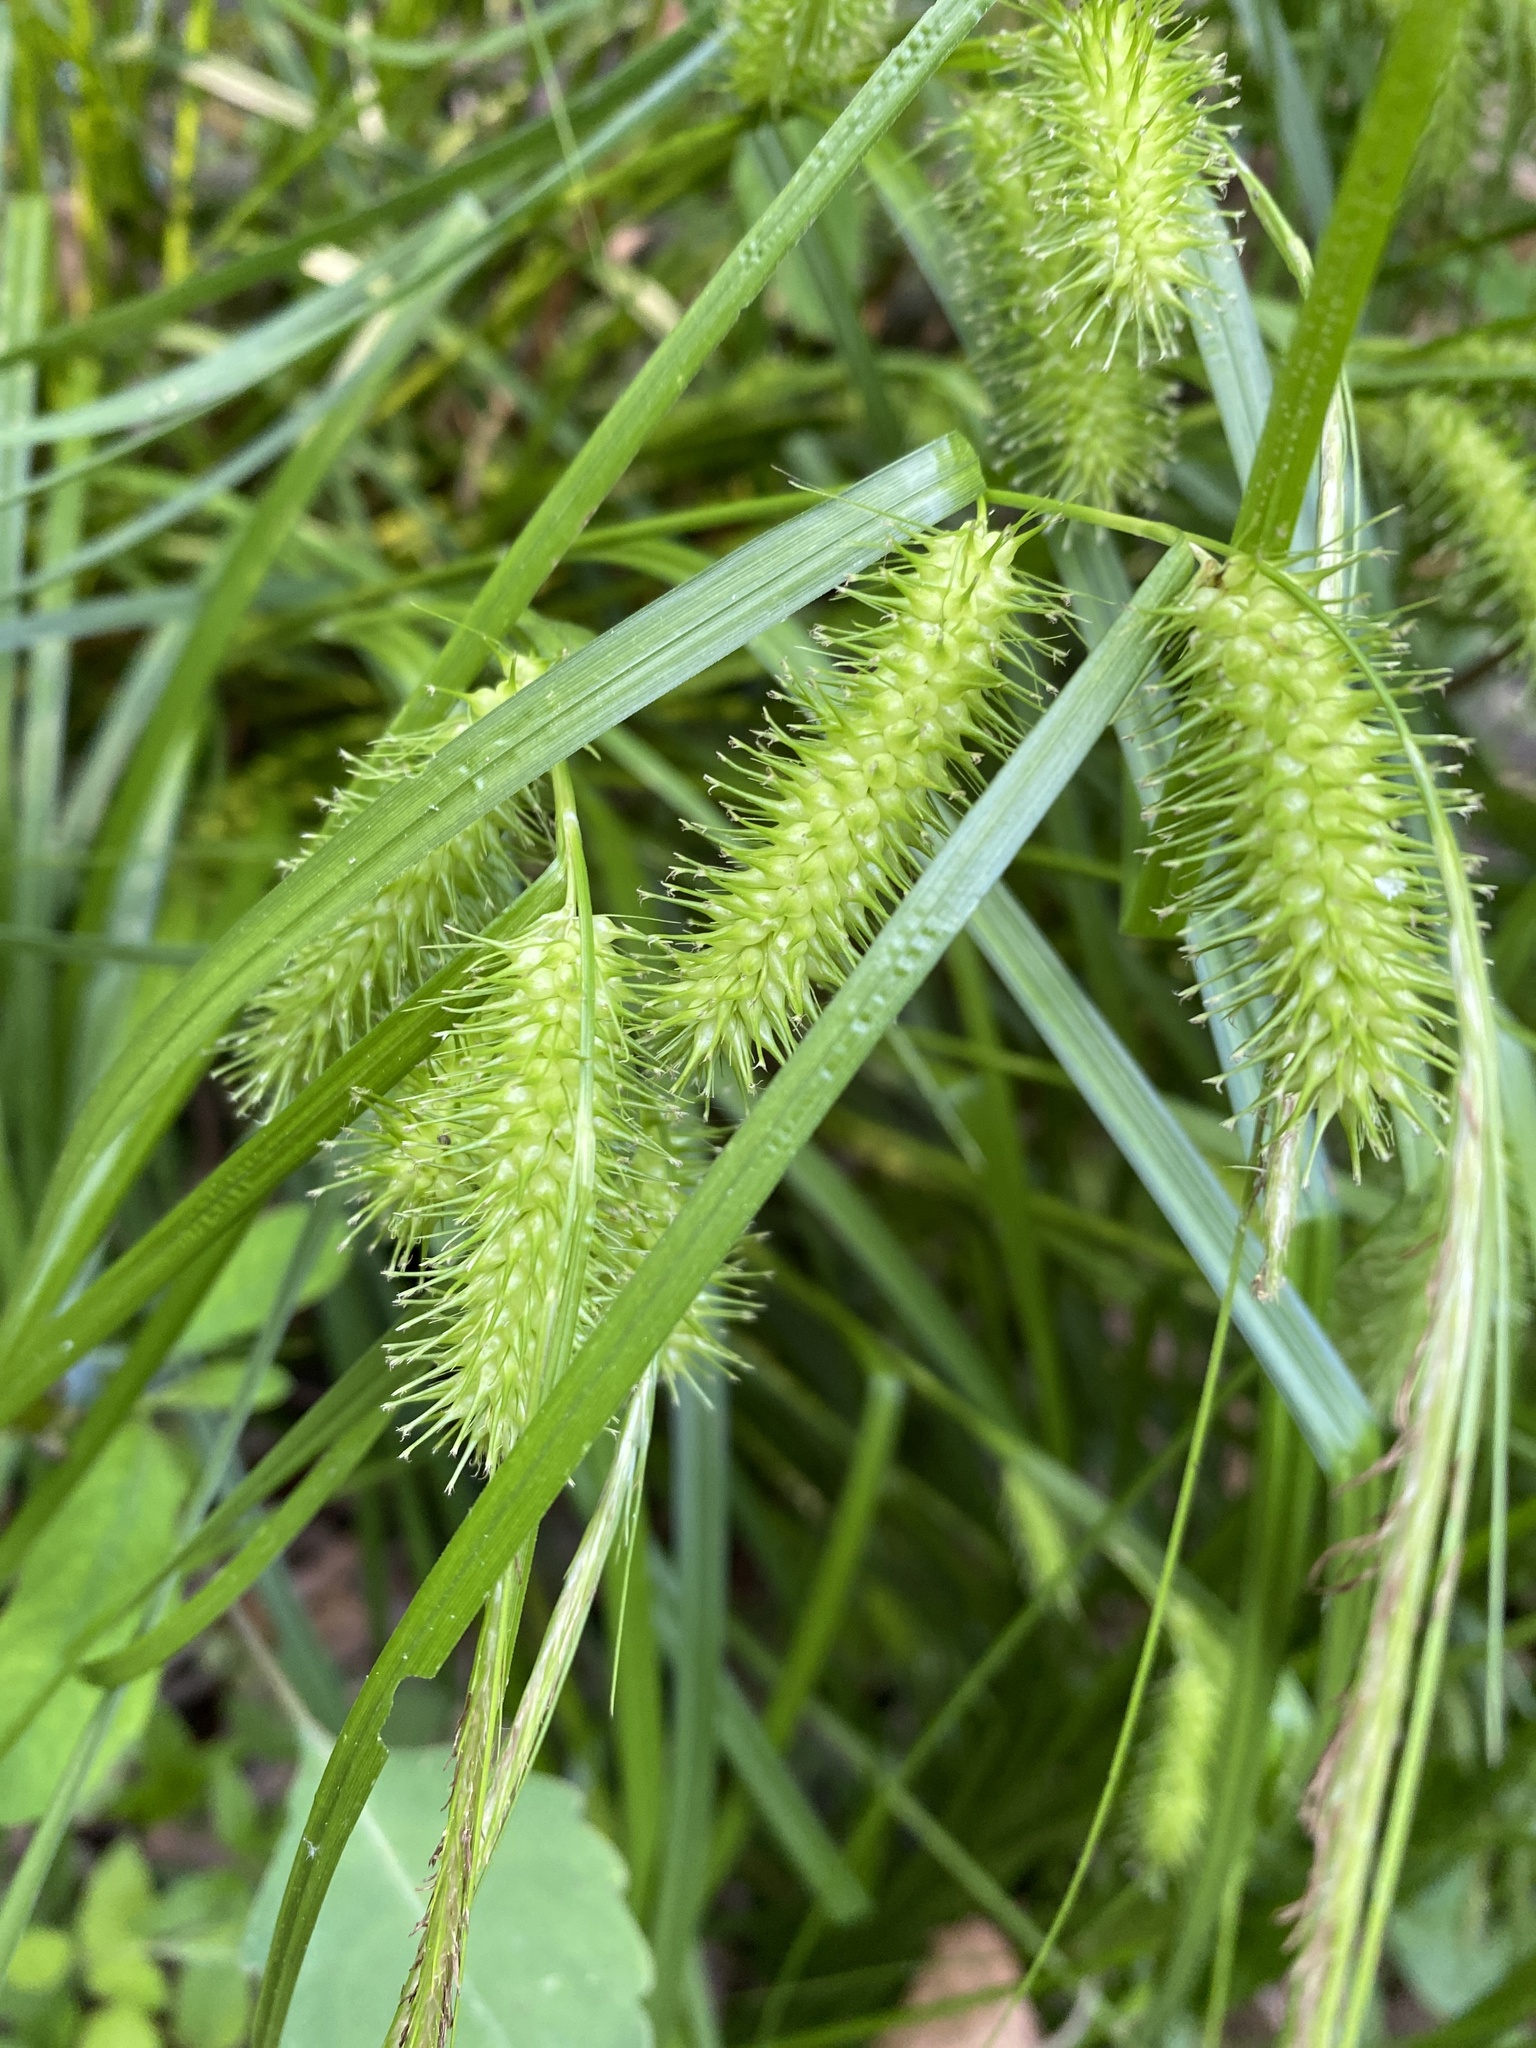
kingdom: Plantae
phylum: Tracheophyta
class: Liliopsida
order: Poales
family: Cyperaceae
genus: Carex
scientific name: Carex lurida
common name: Sallow sedge
